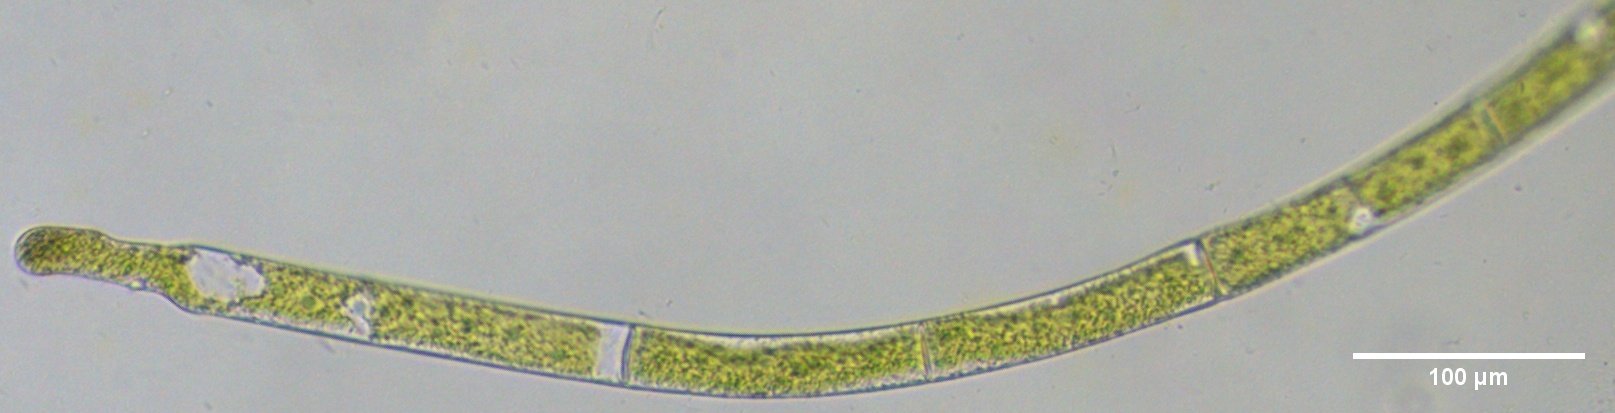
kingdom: Plantae
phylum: Charophyta
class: Zygnematophyceae
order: Zygnematales
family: Zygnemataceae
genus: Mougeotia
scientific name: Mougeotia
